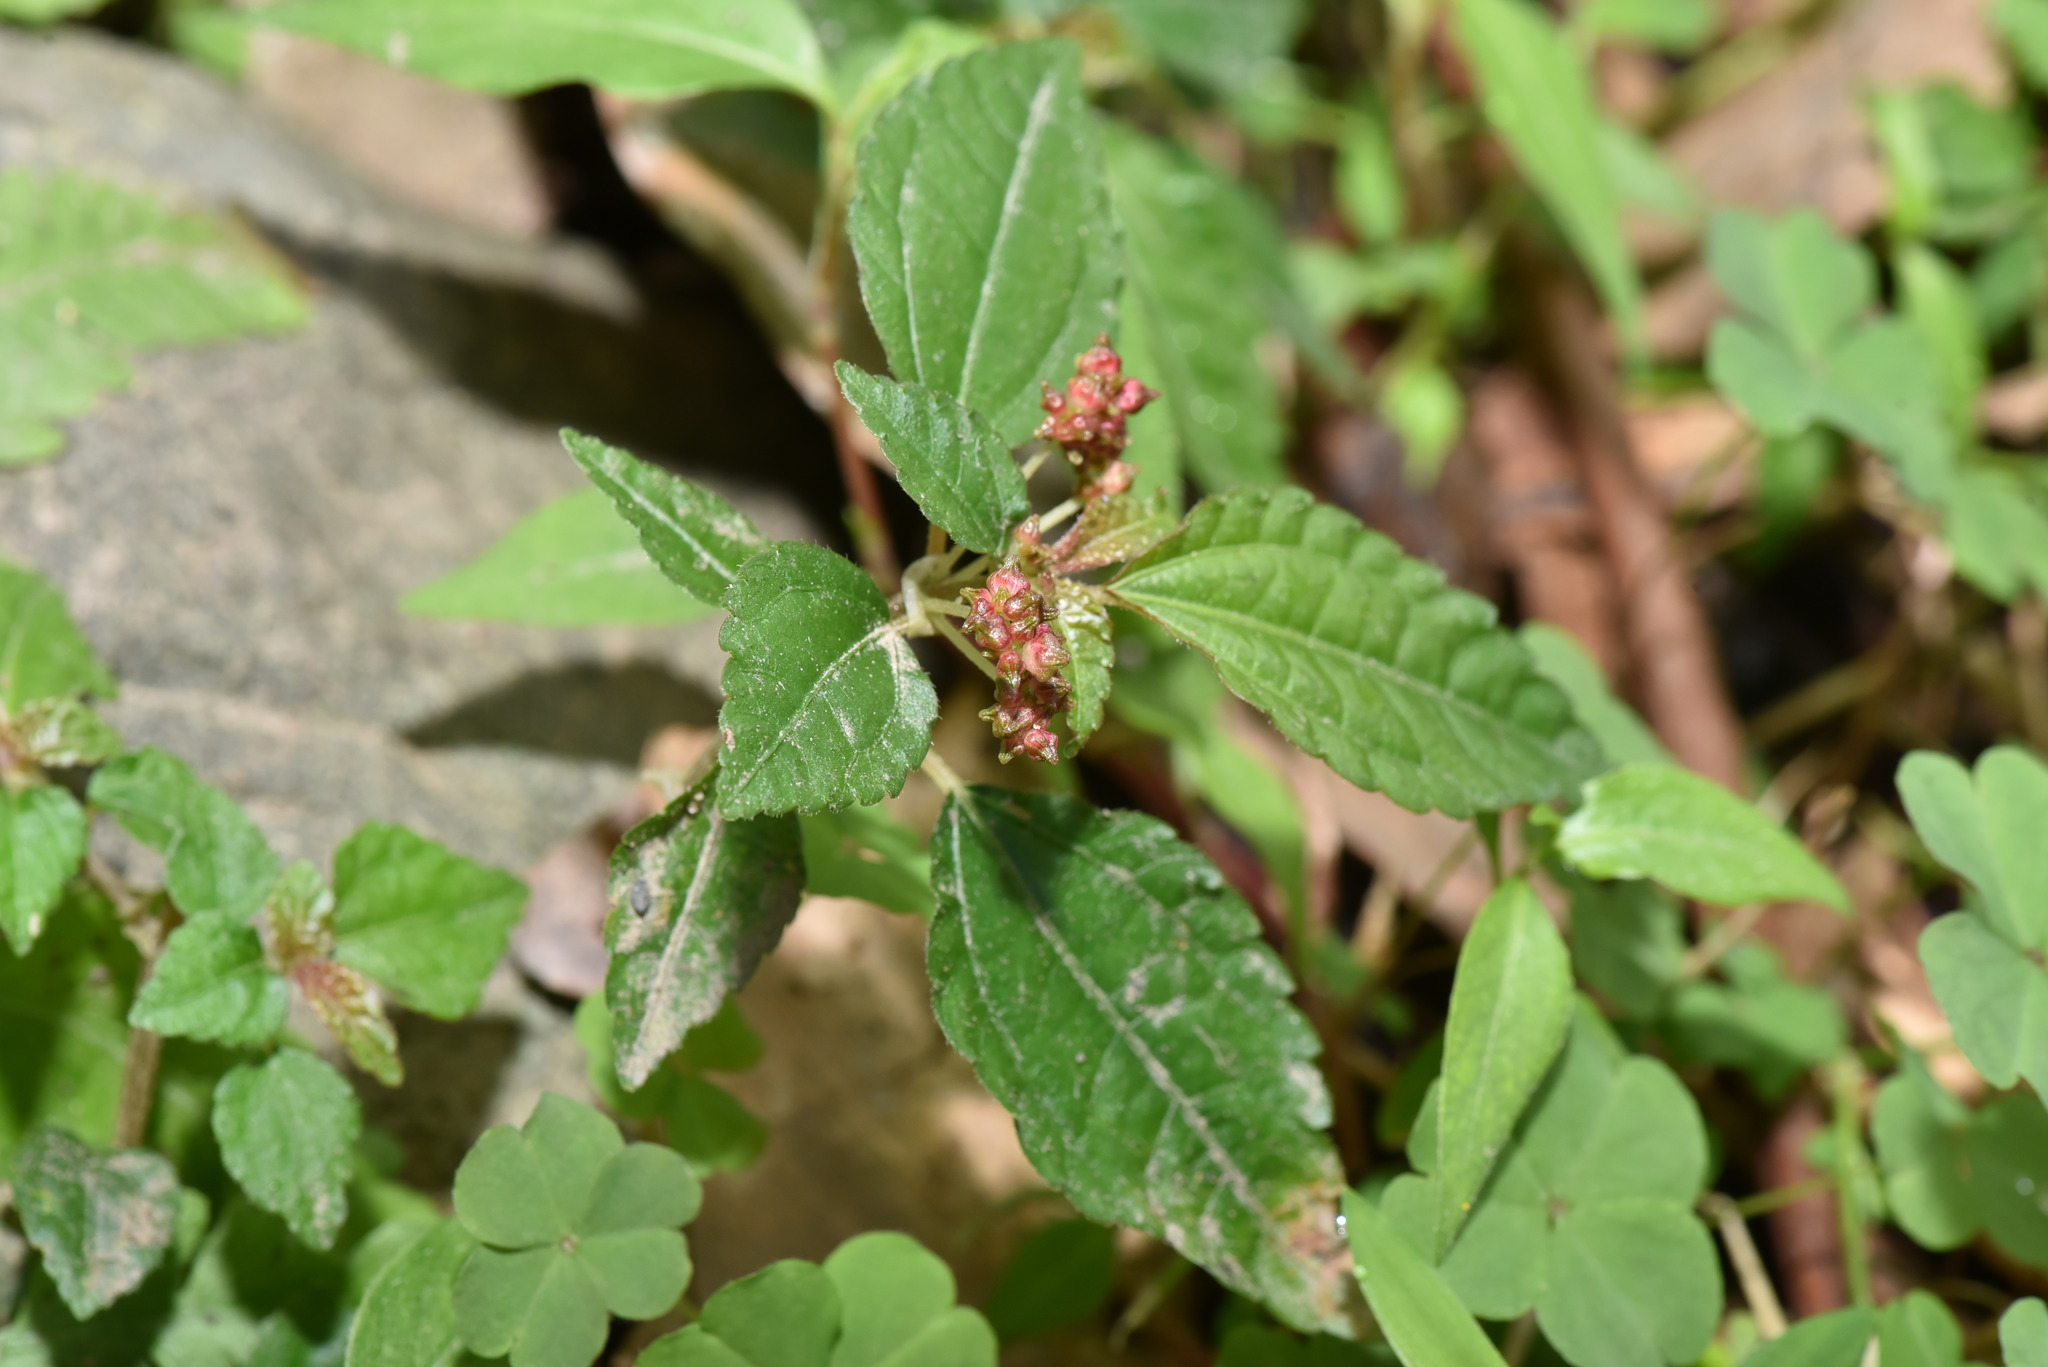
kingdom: Plantae
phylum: Tracheophyta
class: Magnoliopsida
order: Rosales
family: Urticaceae
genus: Pilea
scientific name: Pilea brevicornuta
